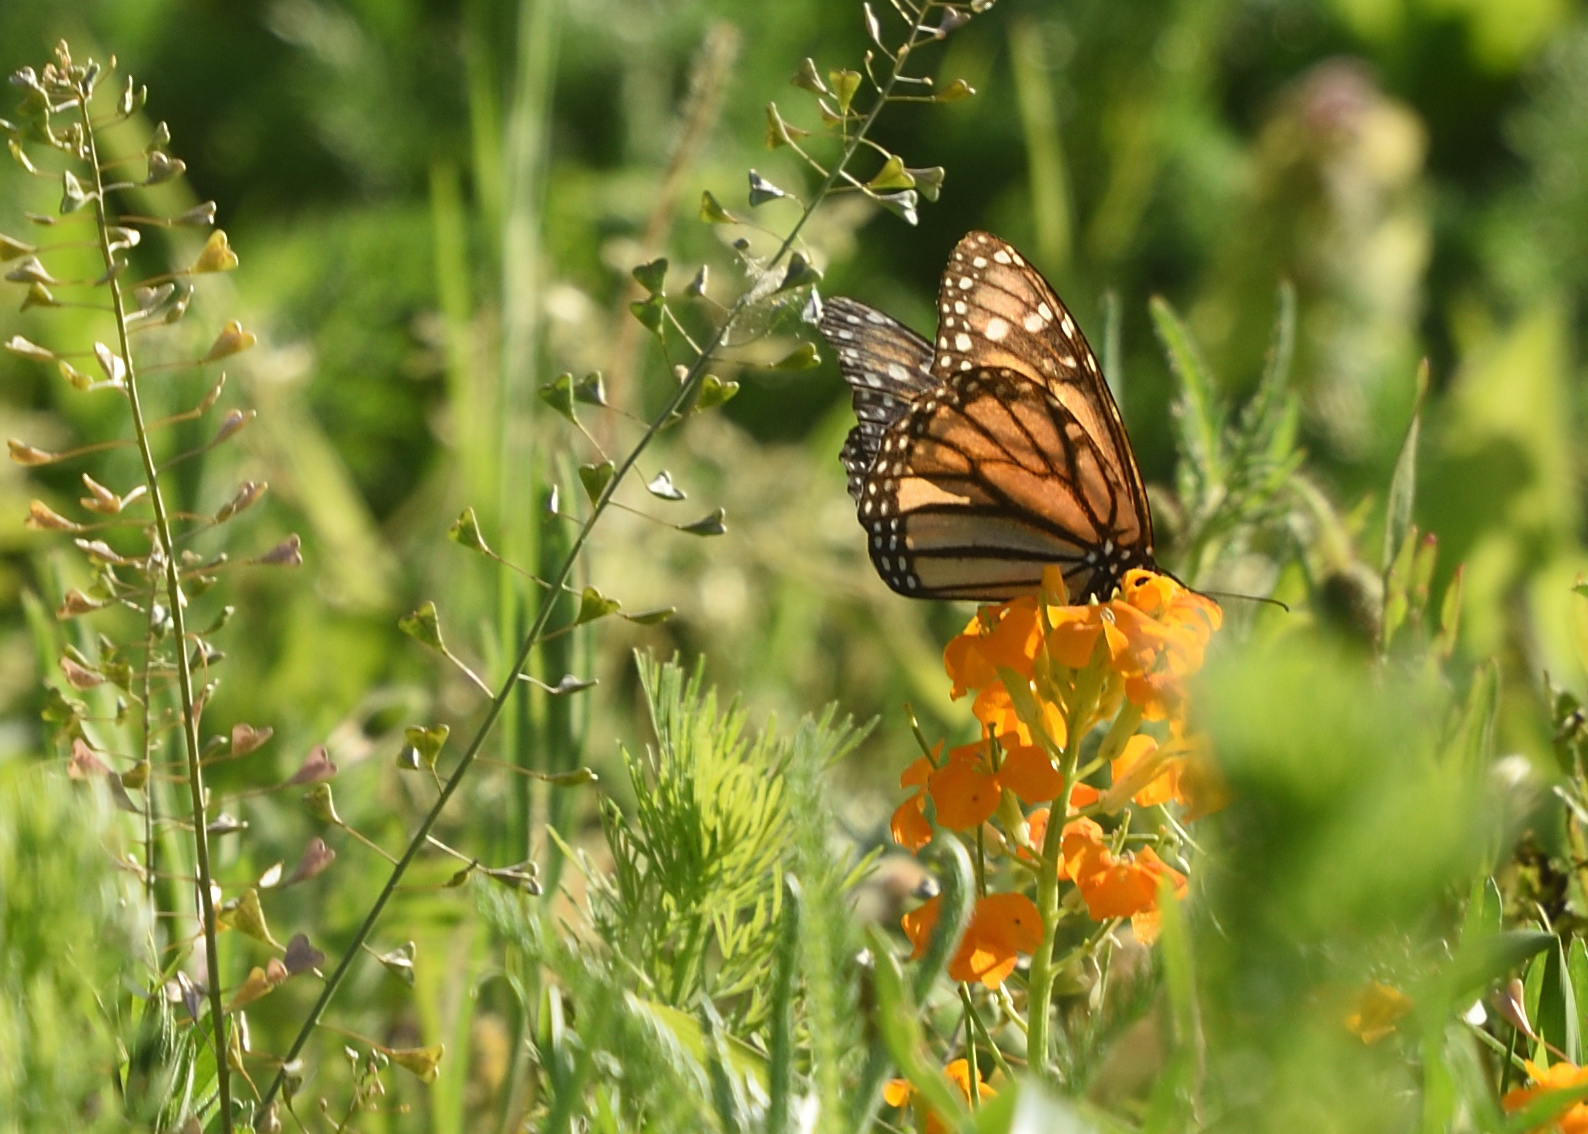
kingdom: Animalia
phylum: Arthropoda
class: Insecta
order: Lepidoptera
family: Nymphalidae
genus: Danaus
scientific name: Danaus plexippus
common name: Monarch
